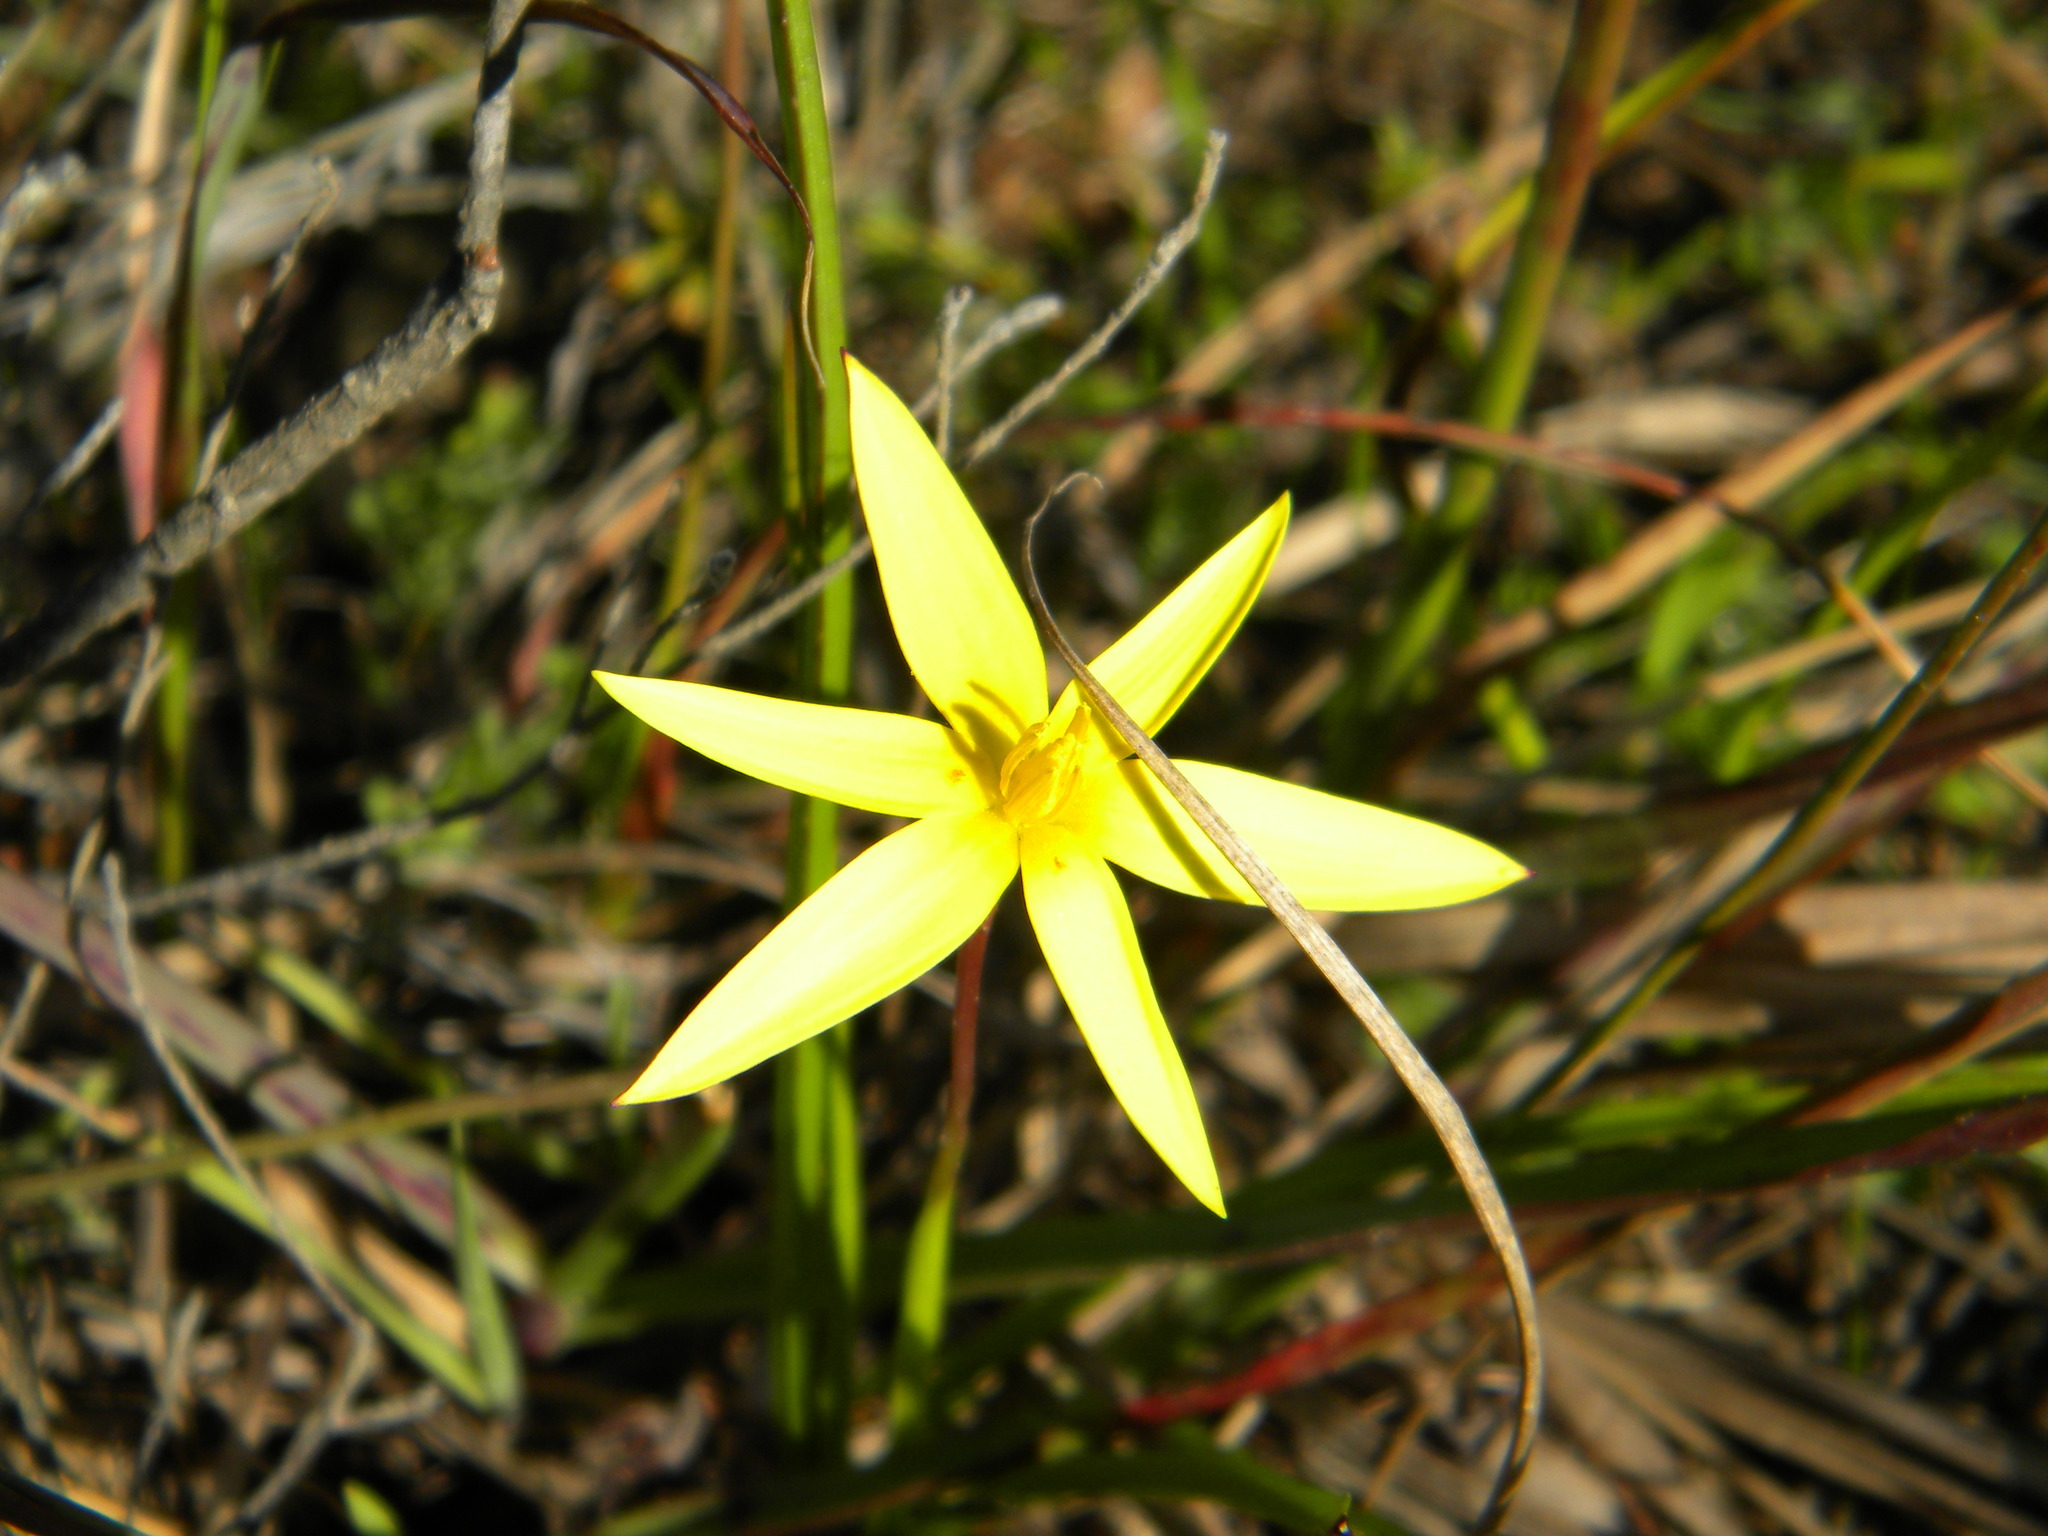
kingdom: Plantae
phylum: Tracheophyta
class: Liliopsida
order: Asparagales
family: Hypoxidaceae
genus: Pauridia
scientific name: Pauridia capensis
